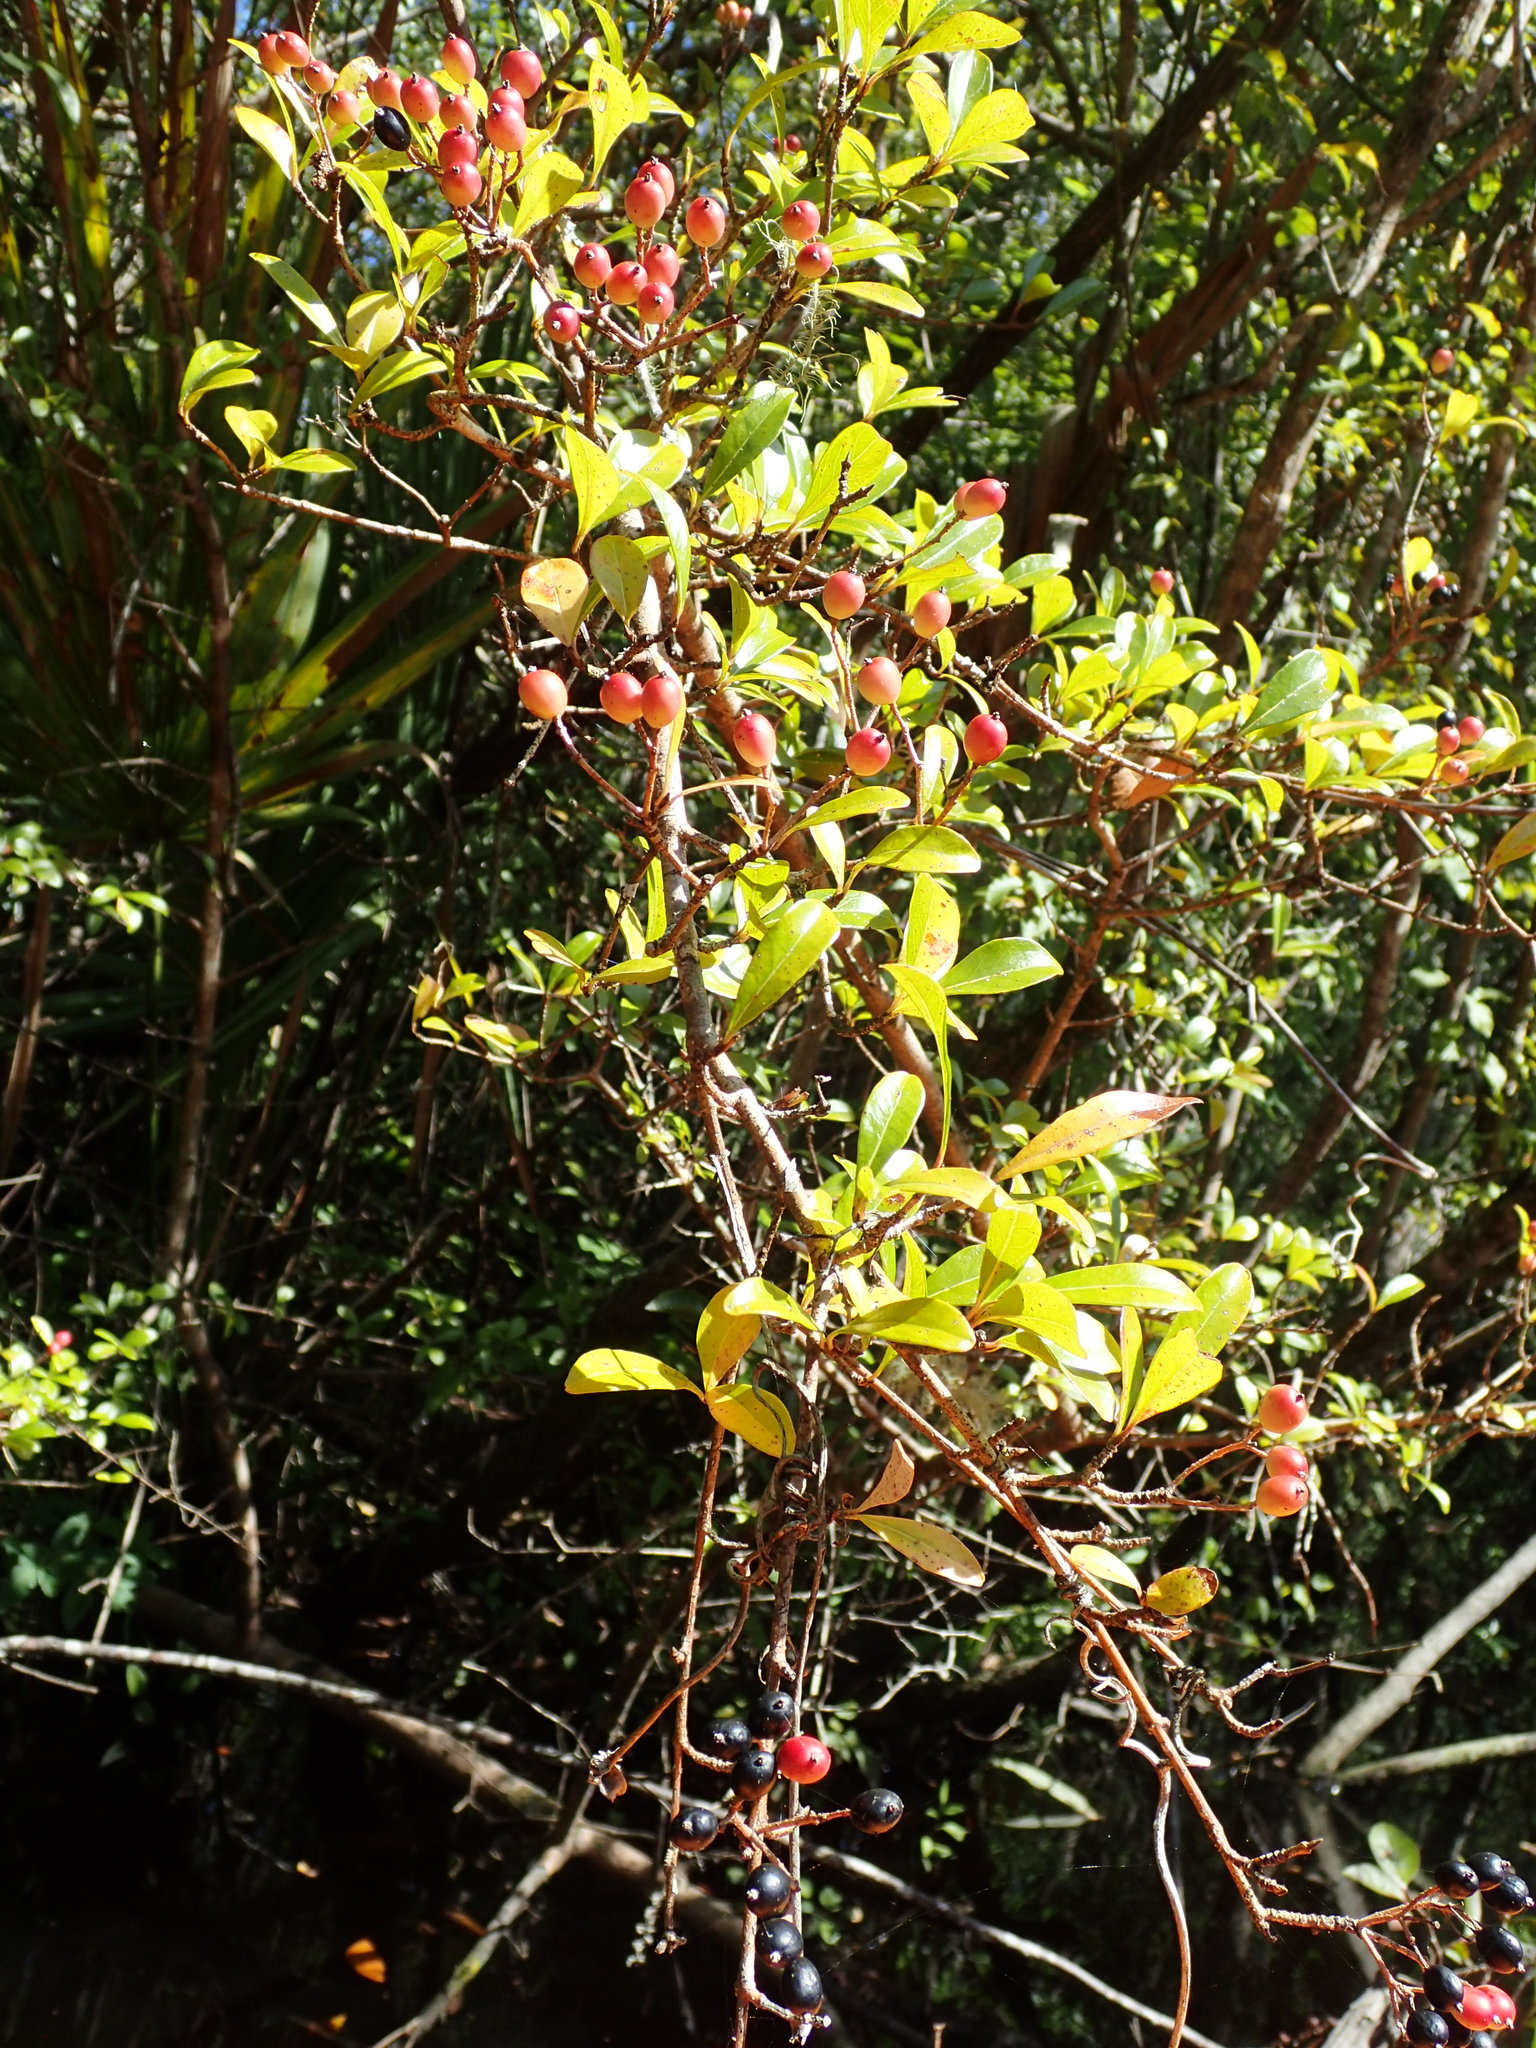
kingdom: Plantae
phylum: Tracheophyta
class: Magnoliopsida
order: Dipsacales
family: Viburnaceae
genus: Viburnum
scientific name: Viburnum obovatum
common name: Walter's viburnum
